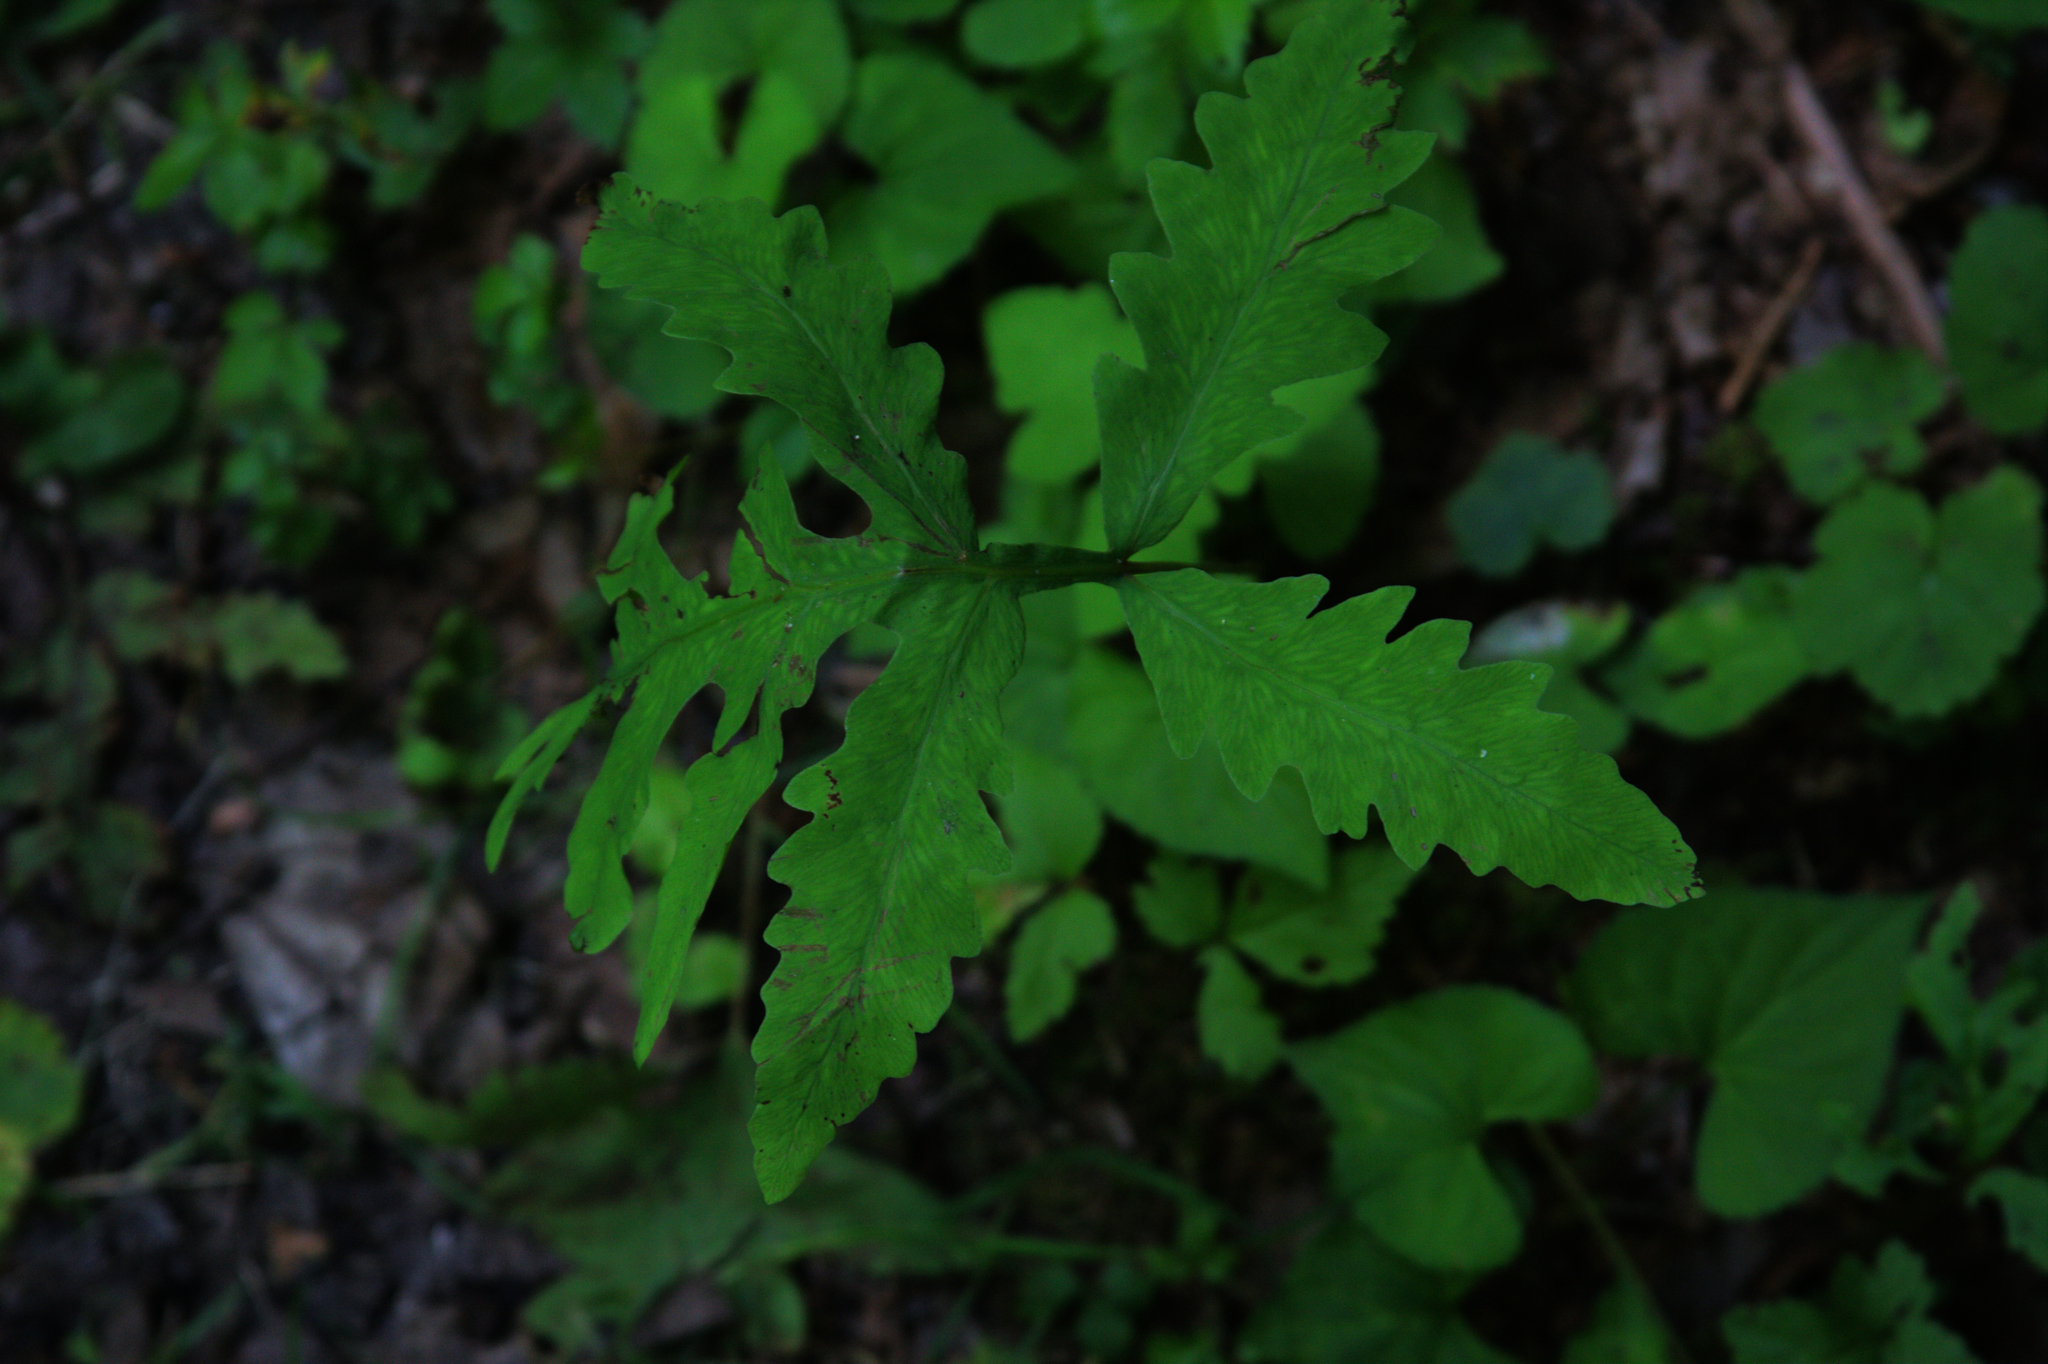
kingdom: Plantae
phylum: Tracheophyta
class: Polypodiopsida
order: Polypodiales
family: Onocleaceae
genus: Onoclea
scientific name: Onoclea sensibilis
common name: Sensitive fern
